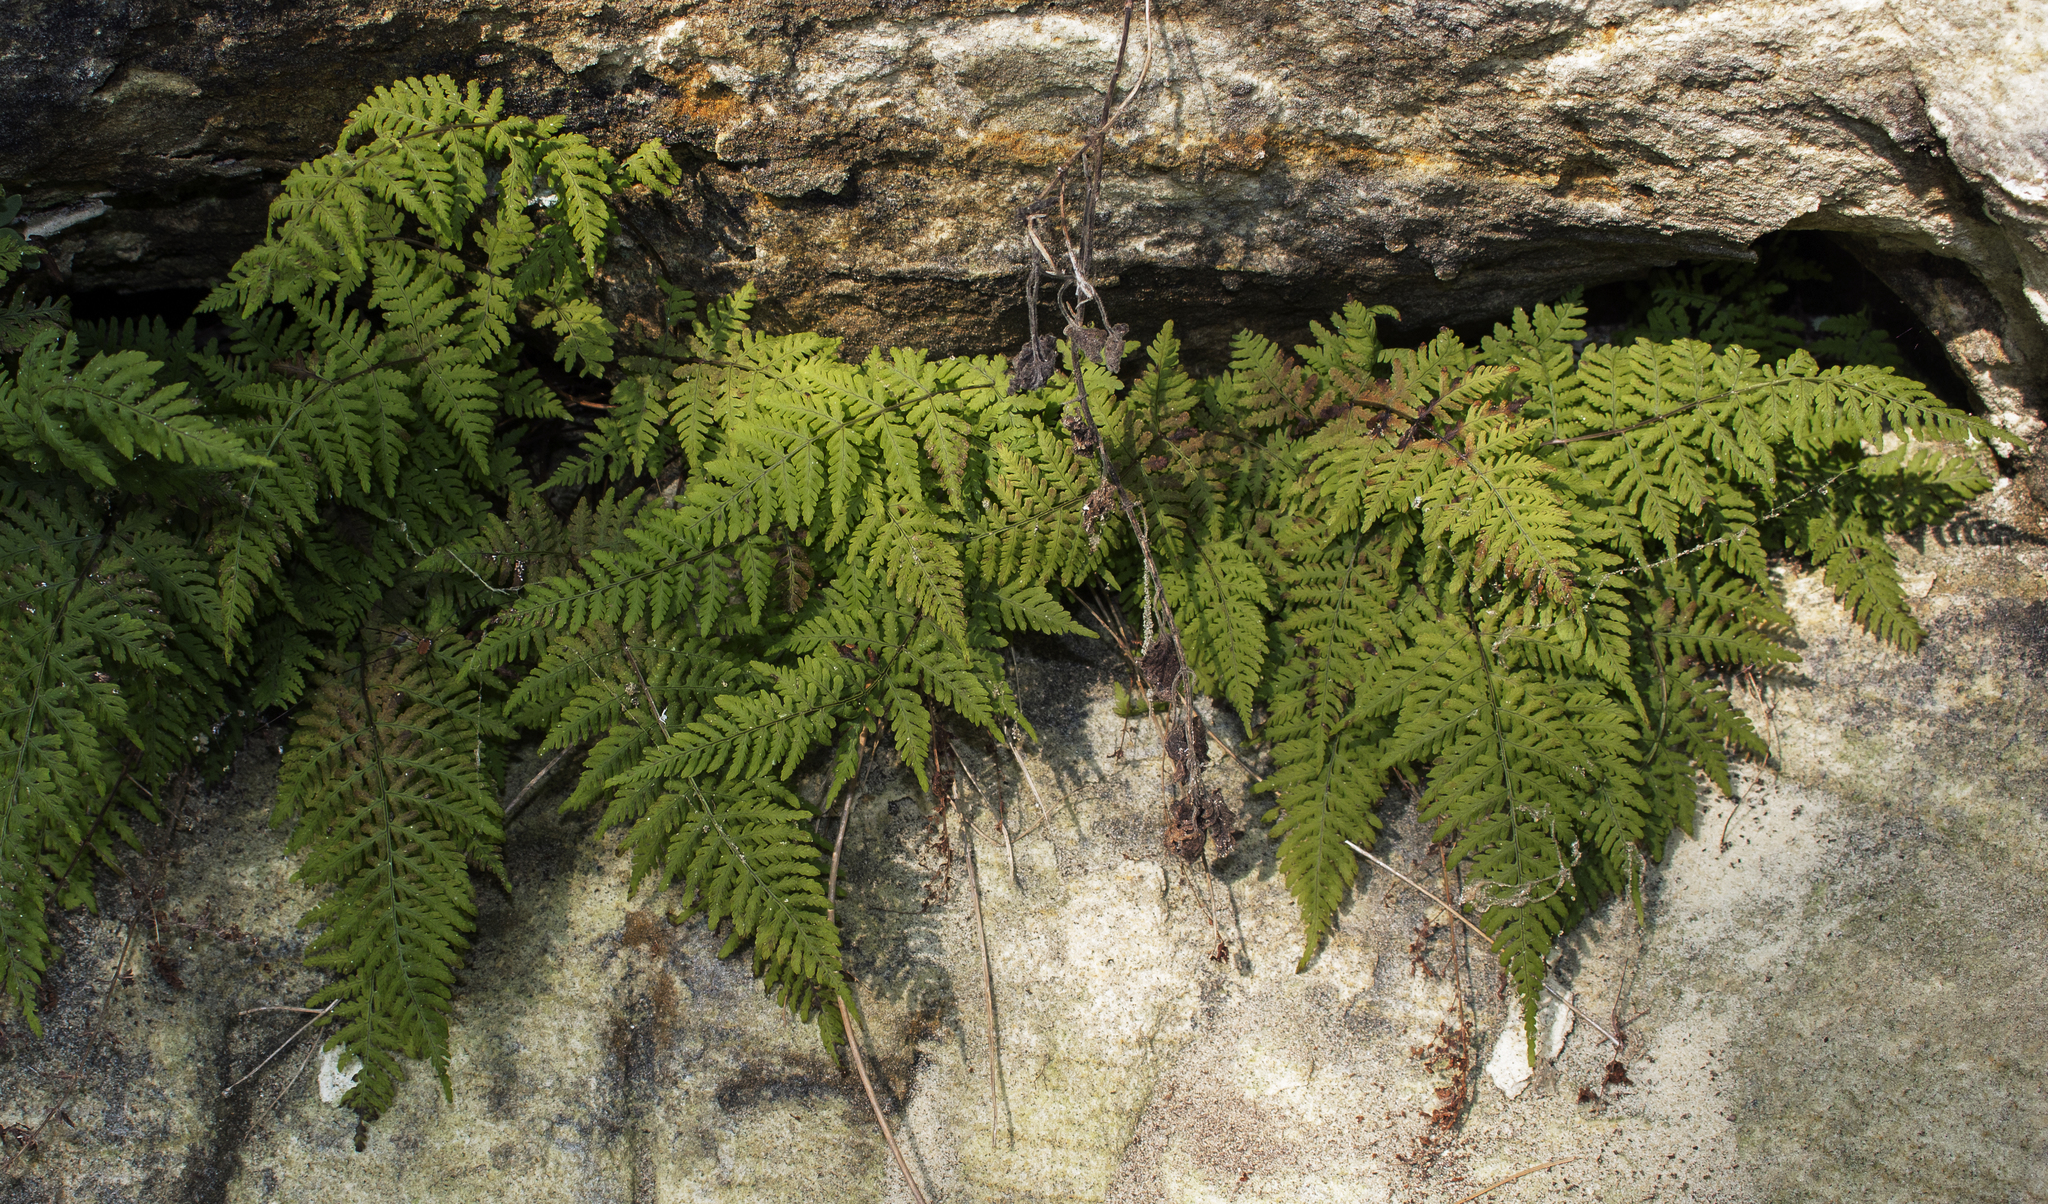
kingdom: Plantae
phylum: Tracheophyta
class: Polypodiopsida
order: Polypodiales
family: Cystopteridaceae
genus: Cystopteris
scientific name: Cystopteris bulbifera
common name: Bulblet bladder fern
